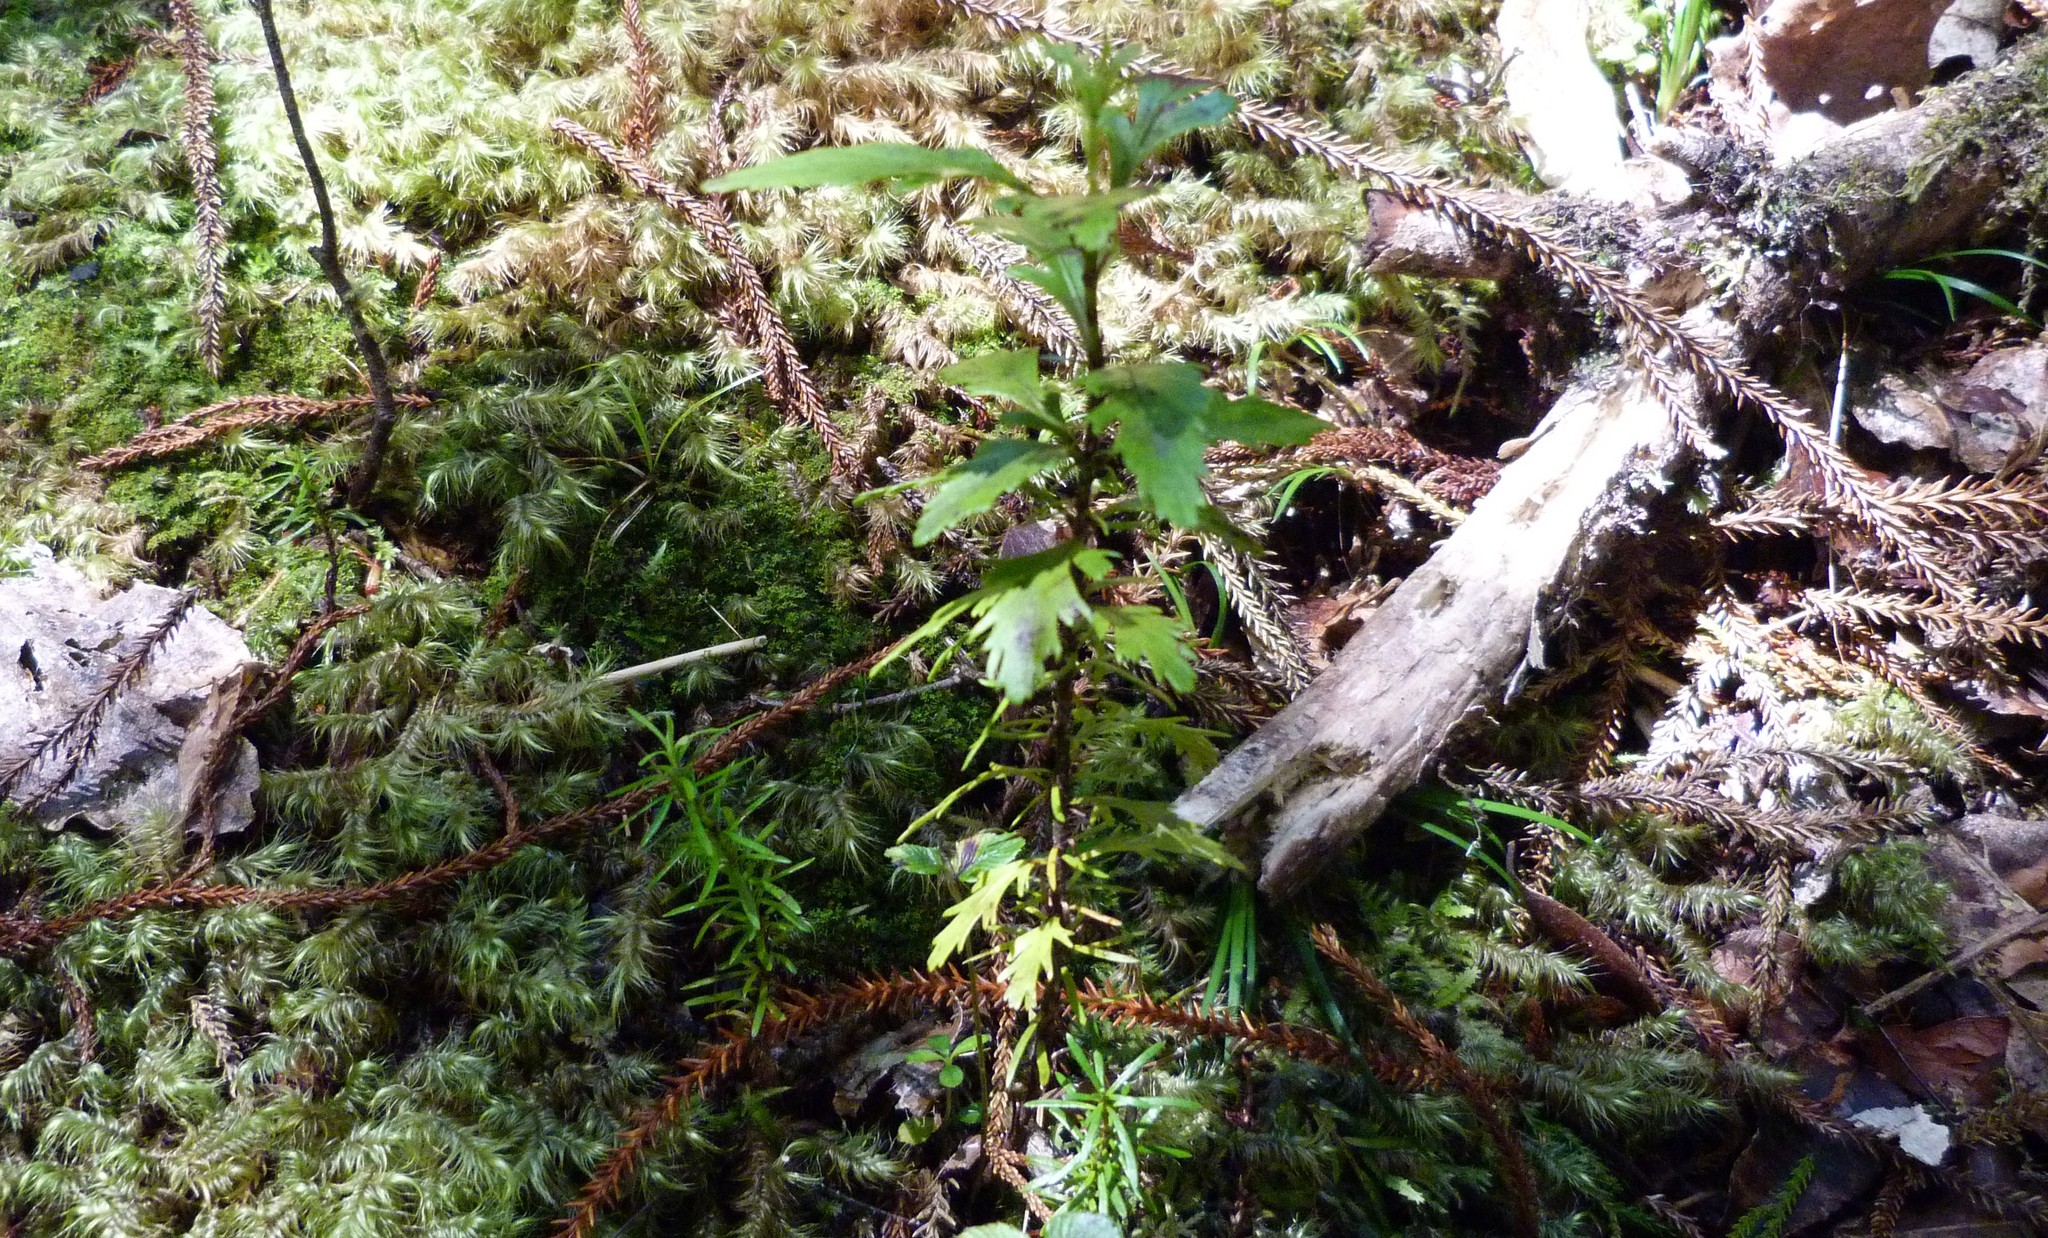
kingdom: Plantae
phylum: Tracheophyta
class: Pinopsida
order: Pinales
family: Phyllocladaceae
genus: Phyllocladus
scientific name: Phyllocladus trichomanoides
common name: Celery pine
